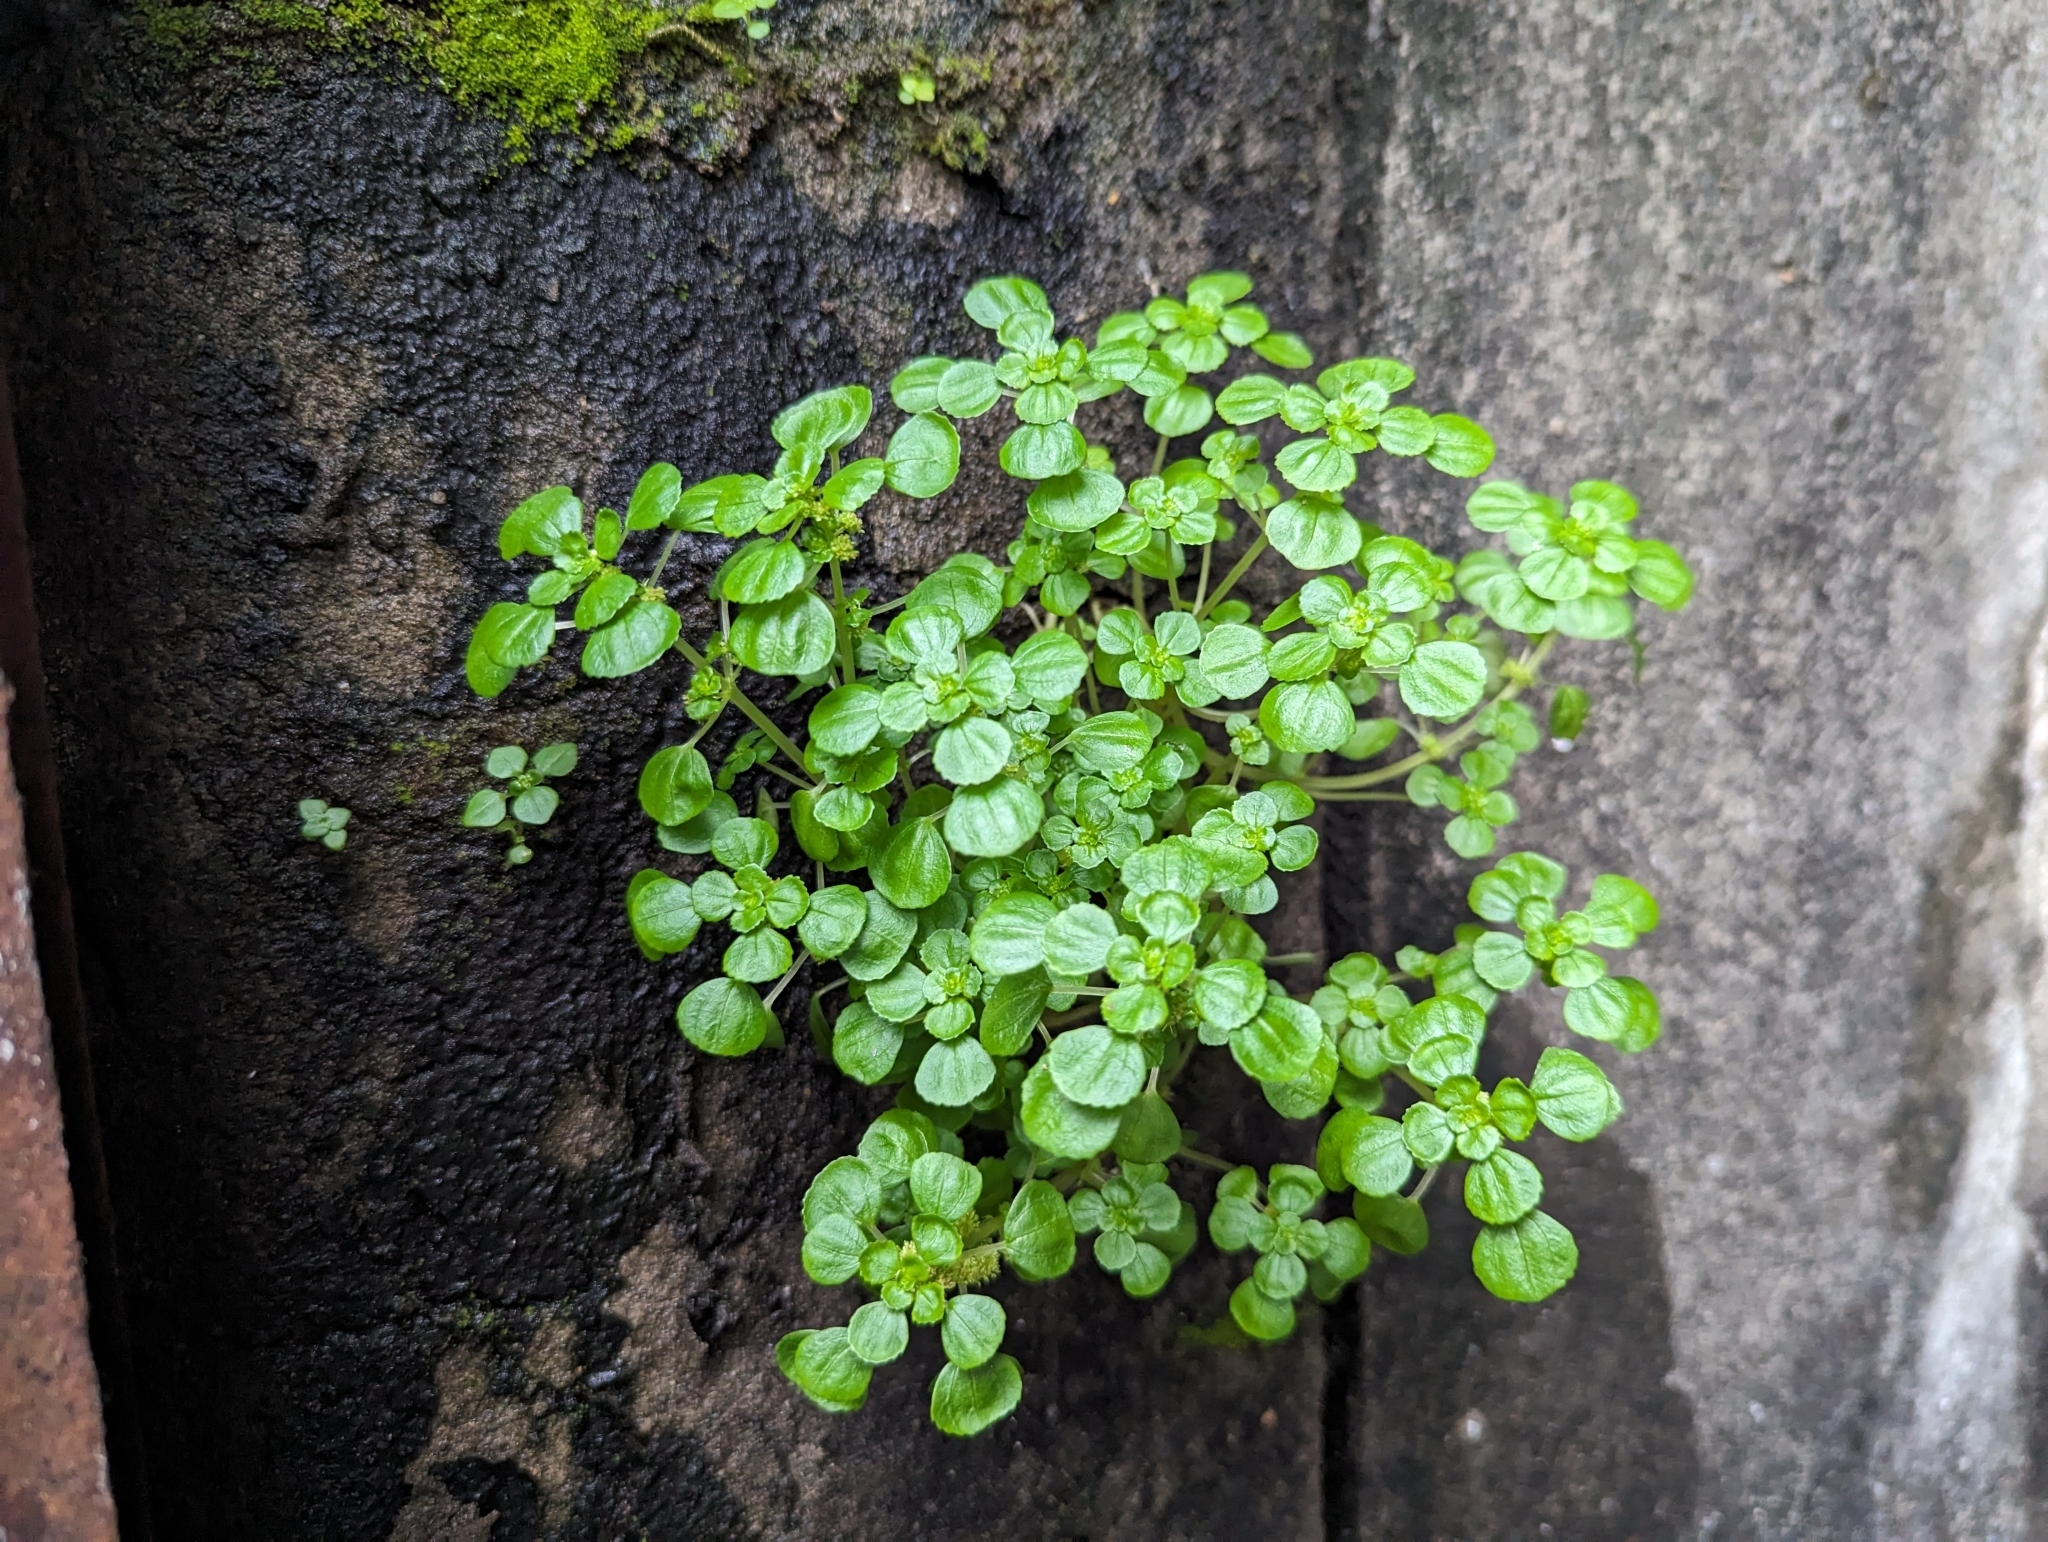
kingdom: Plantae
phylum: Tracheophyta
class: Magnoliopsida
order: Rosales
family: Urticaceae
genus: Pilea
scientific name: Pilea peploides
